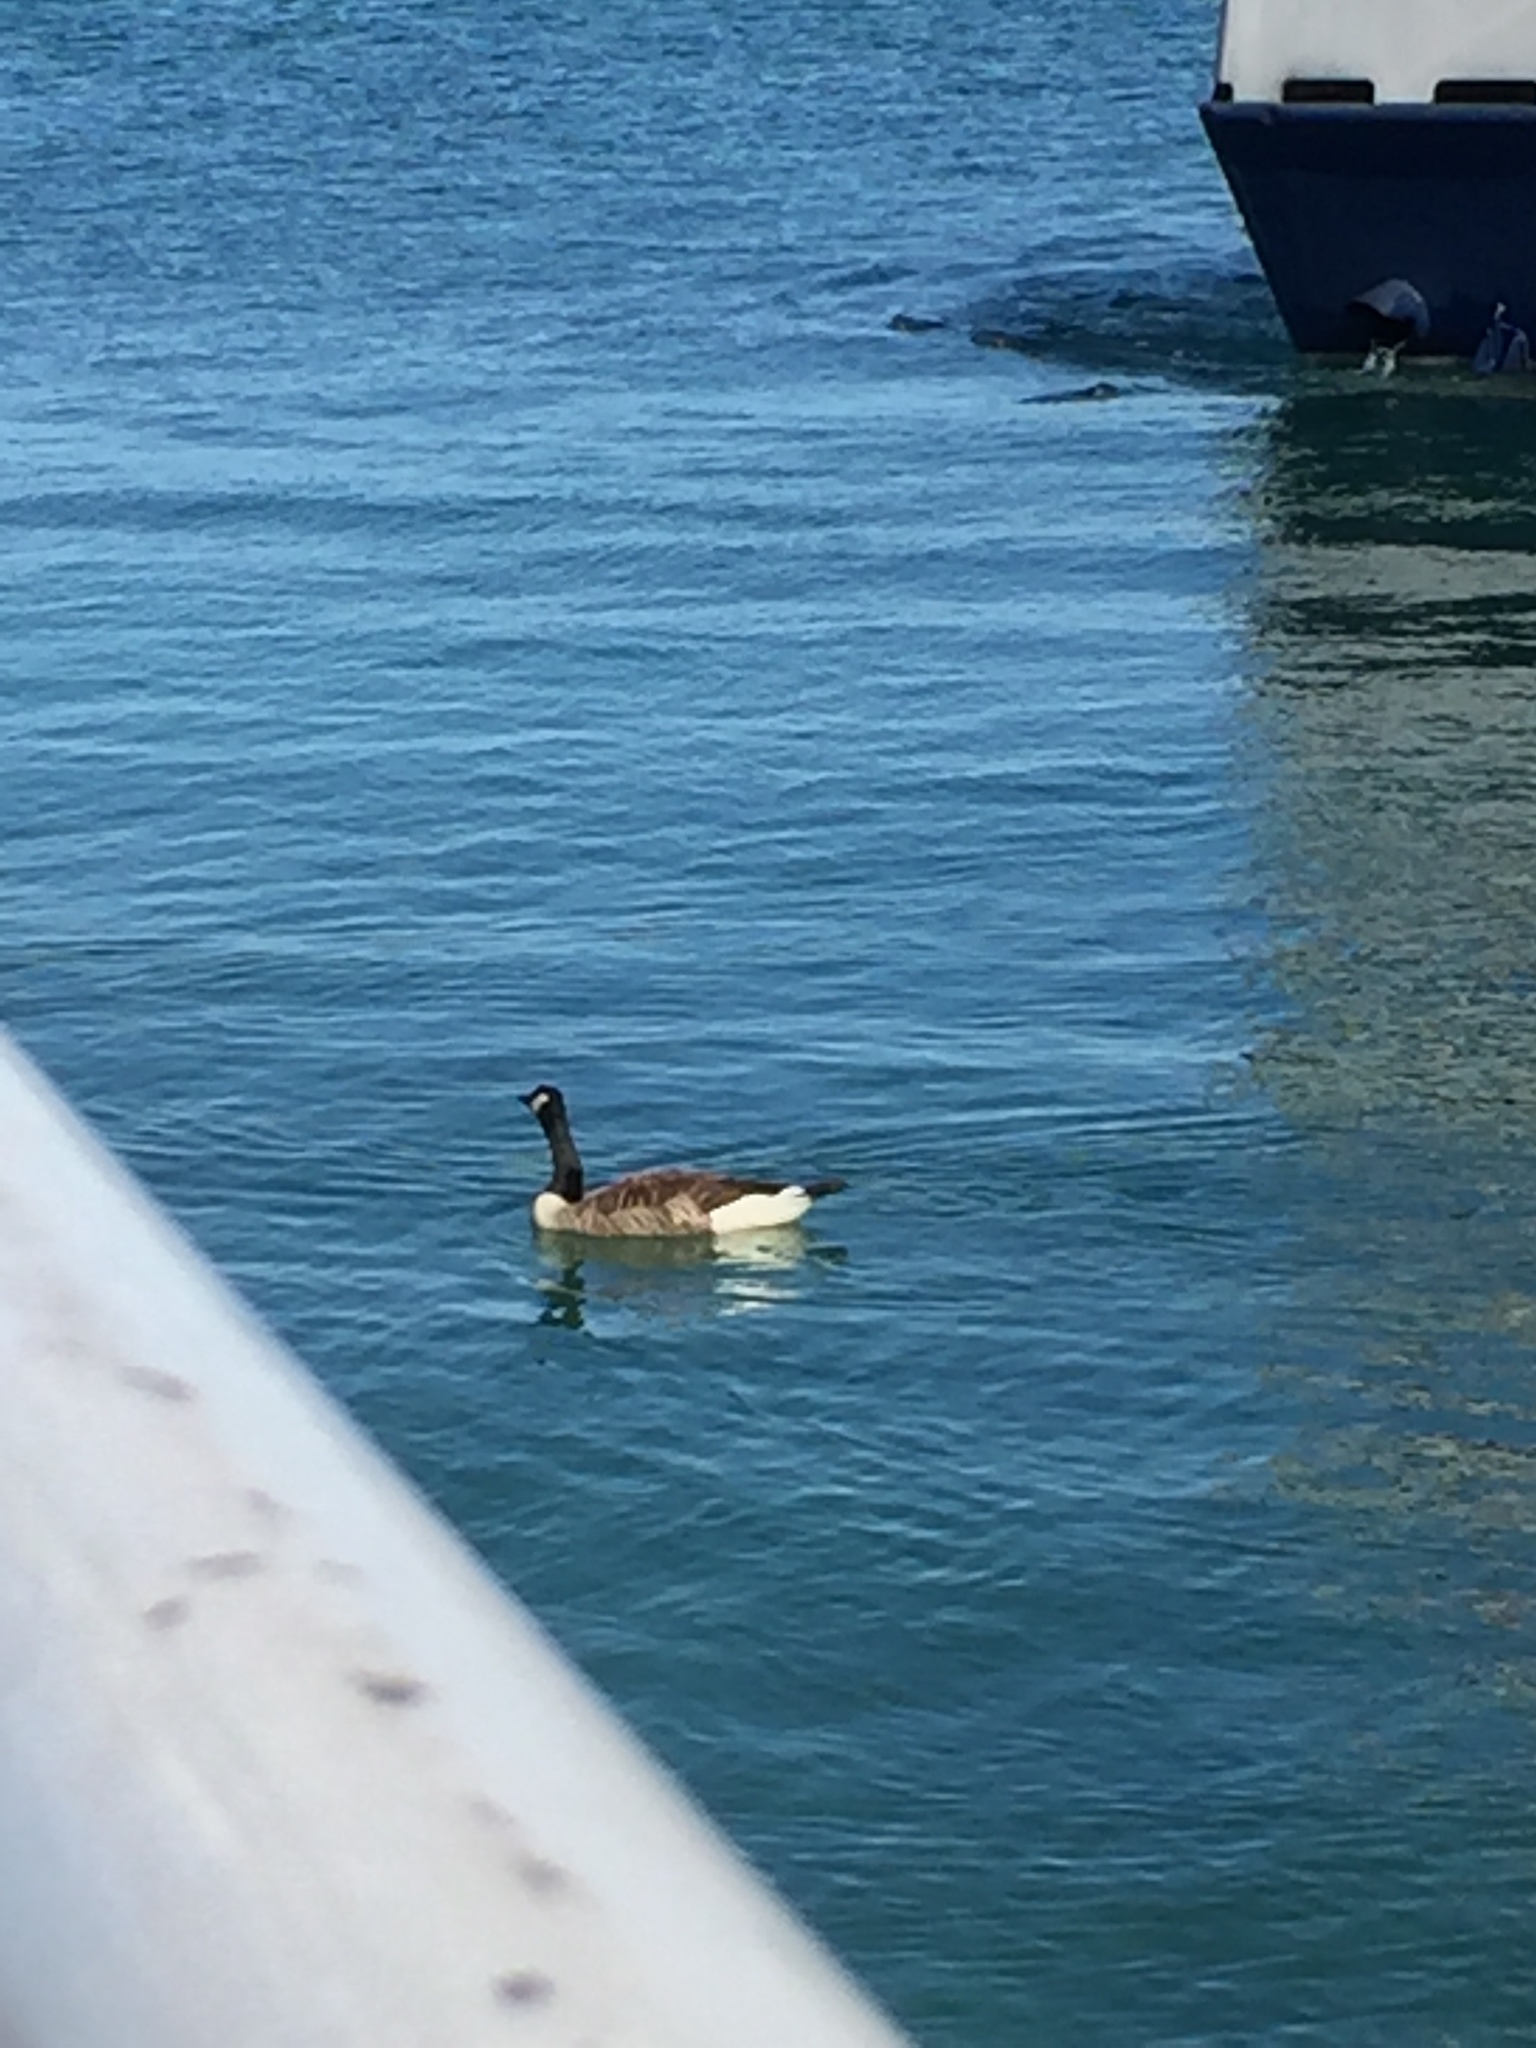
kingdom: Animalia
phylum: Chordata
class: Aves
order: Anseriformes
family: Anatidae
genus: Branta
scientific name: Branta canadensis
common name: Canada goose
